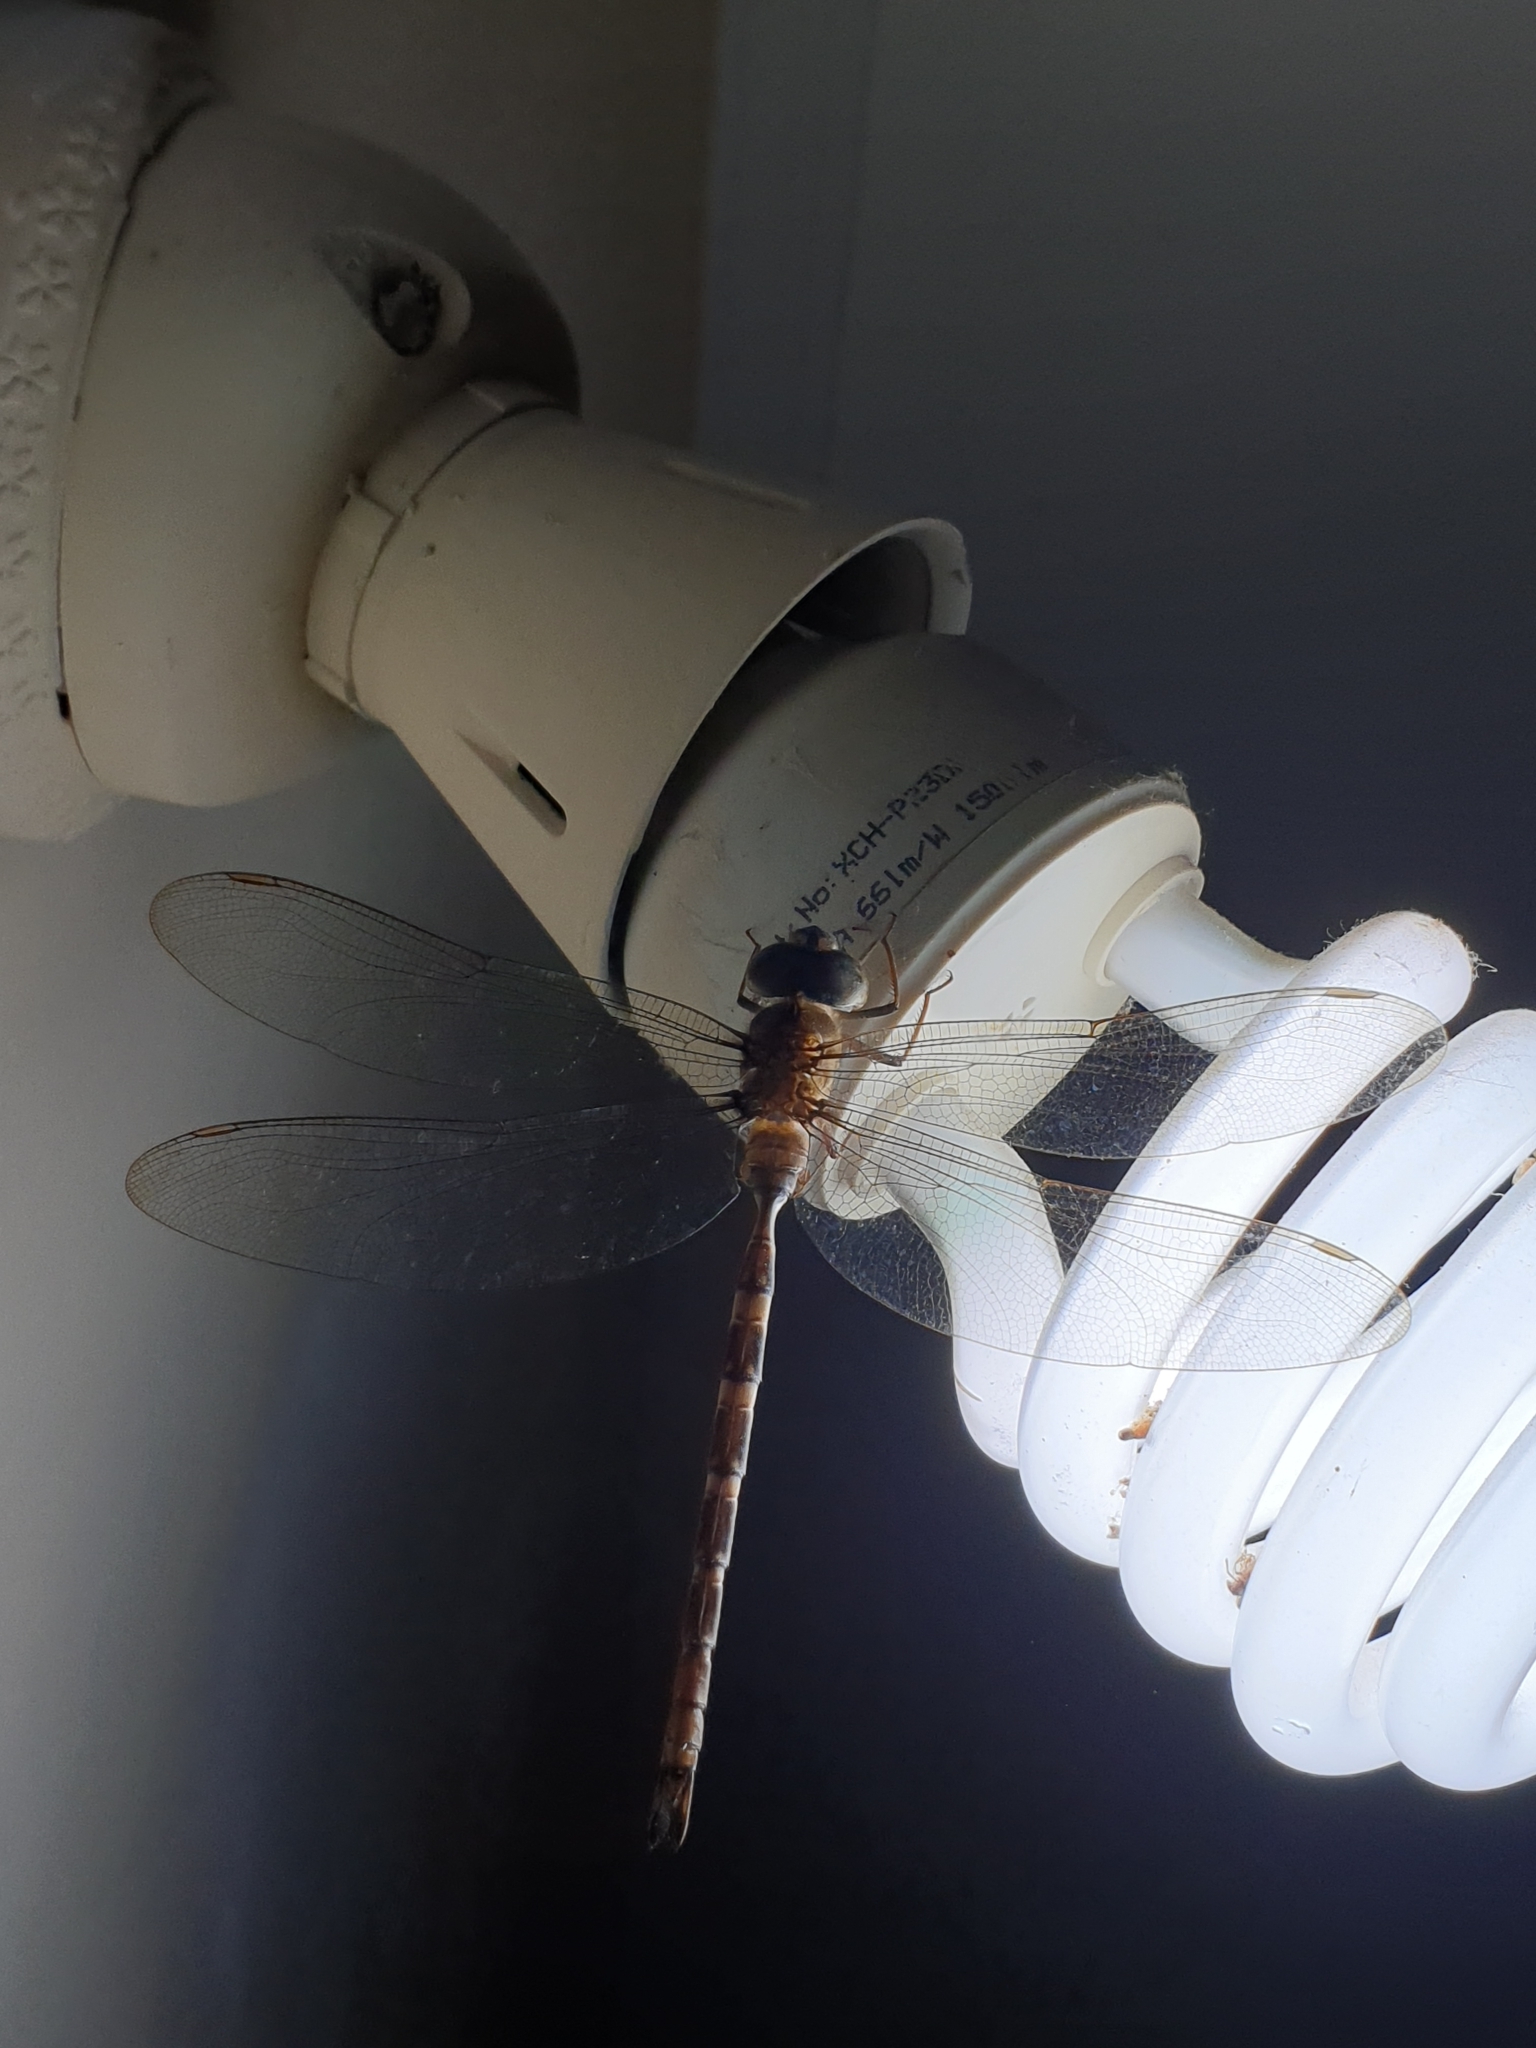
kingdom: Animalia
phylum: Arthropoda
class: Insecta
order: Odonata
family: Aeshnidae
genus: Gynacantha
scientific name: Gynacantha dravida
